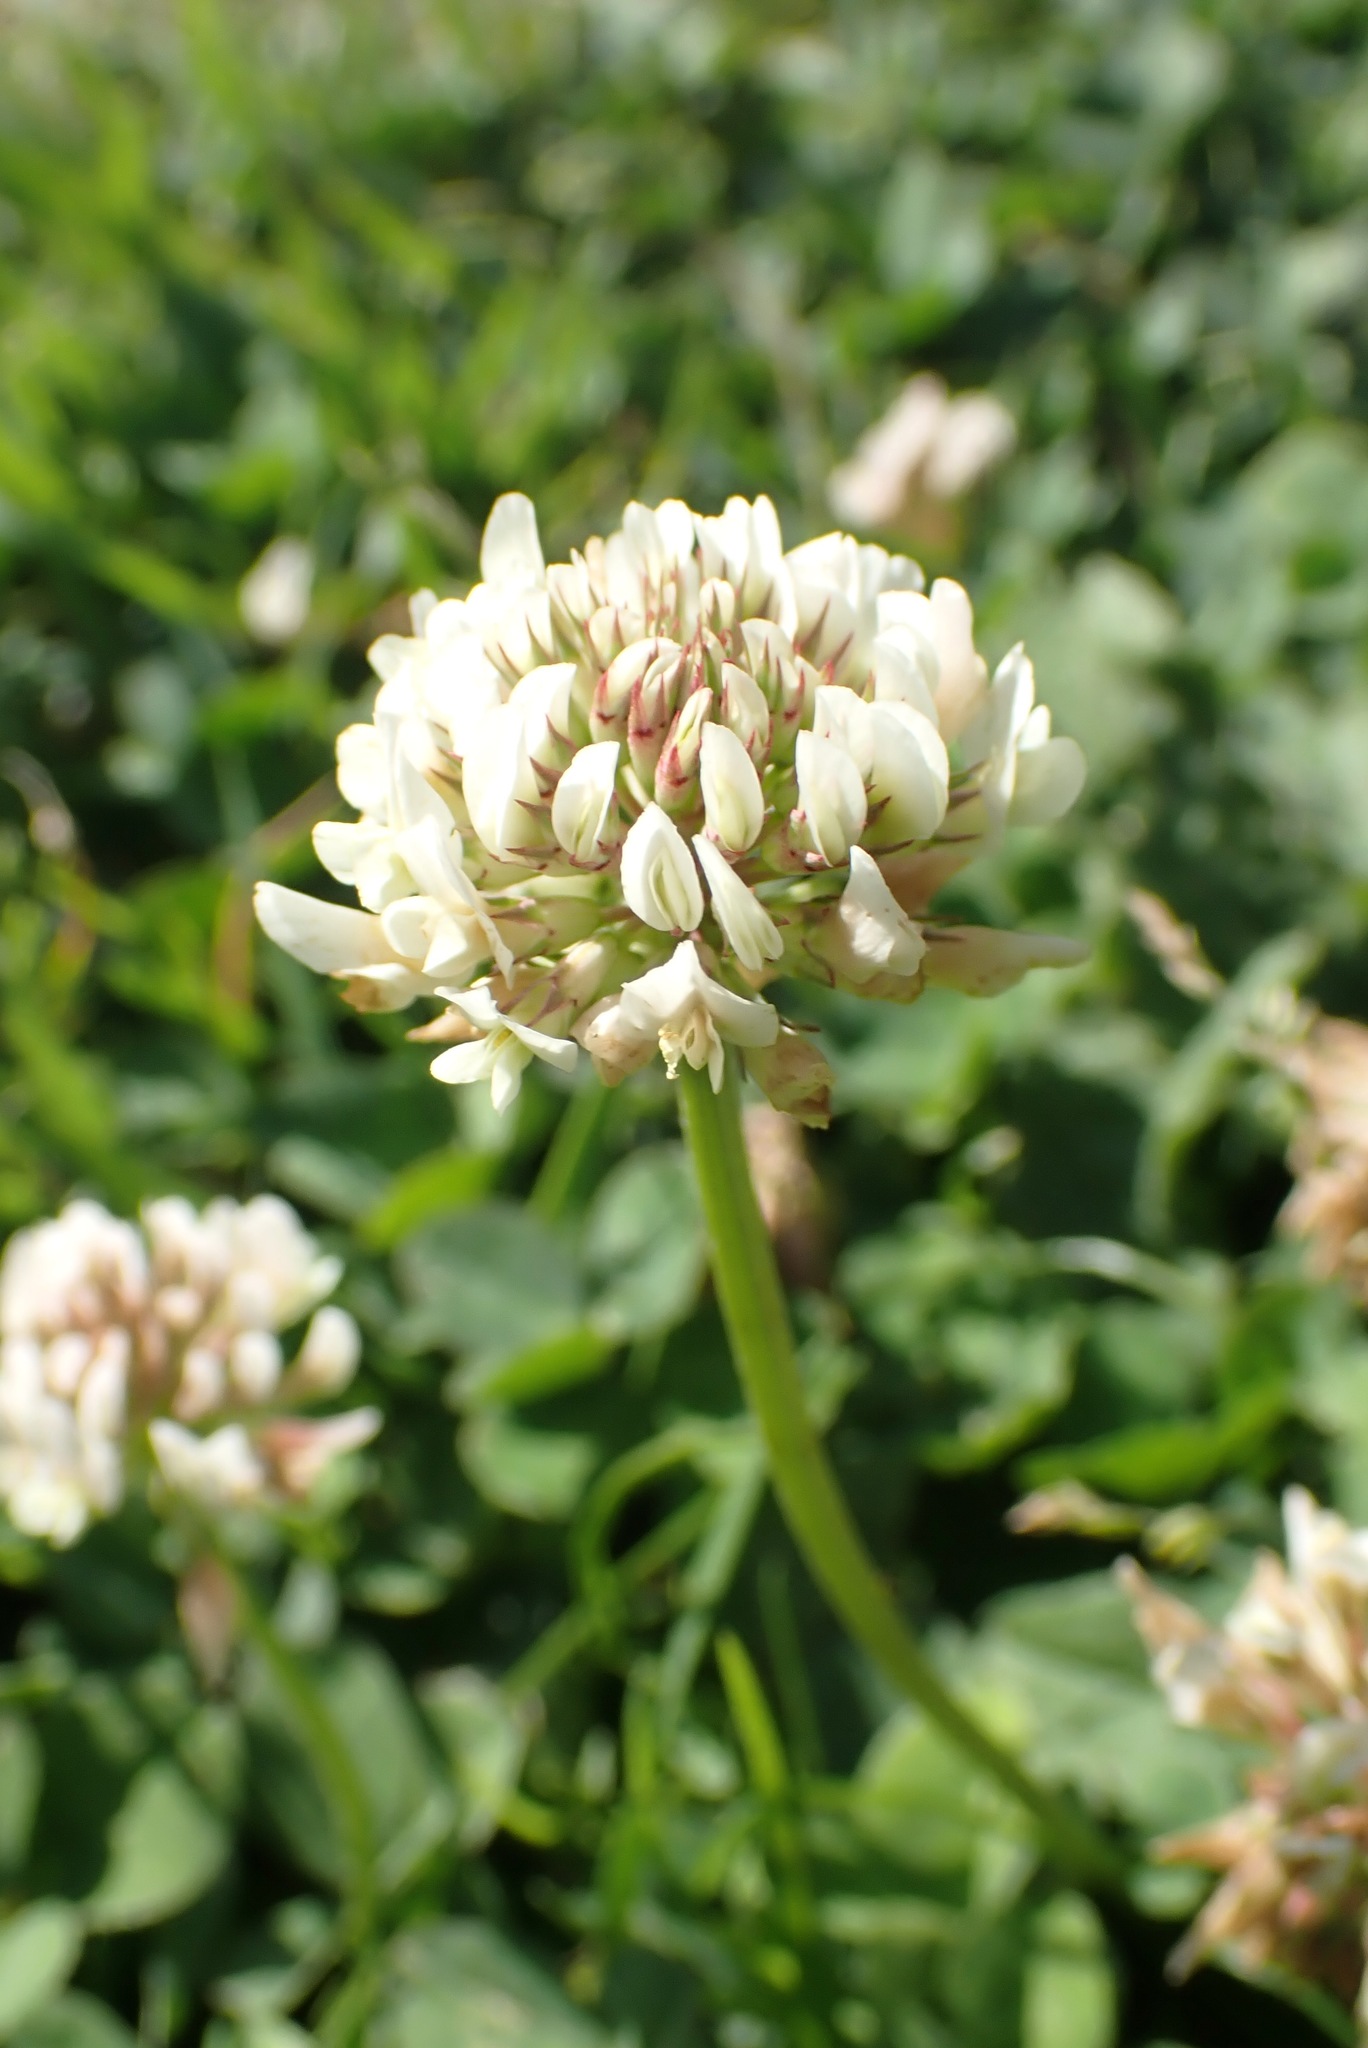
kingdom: Plantae
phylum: Tracheophyta
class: Magnoliopsida
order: Fabales
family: Fabaceae
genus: Trifolium
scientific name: Trifolium repens
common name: White clover
